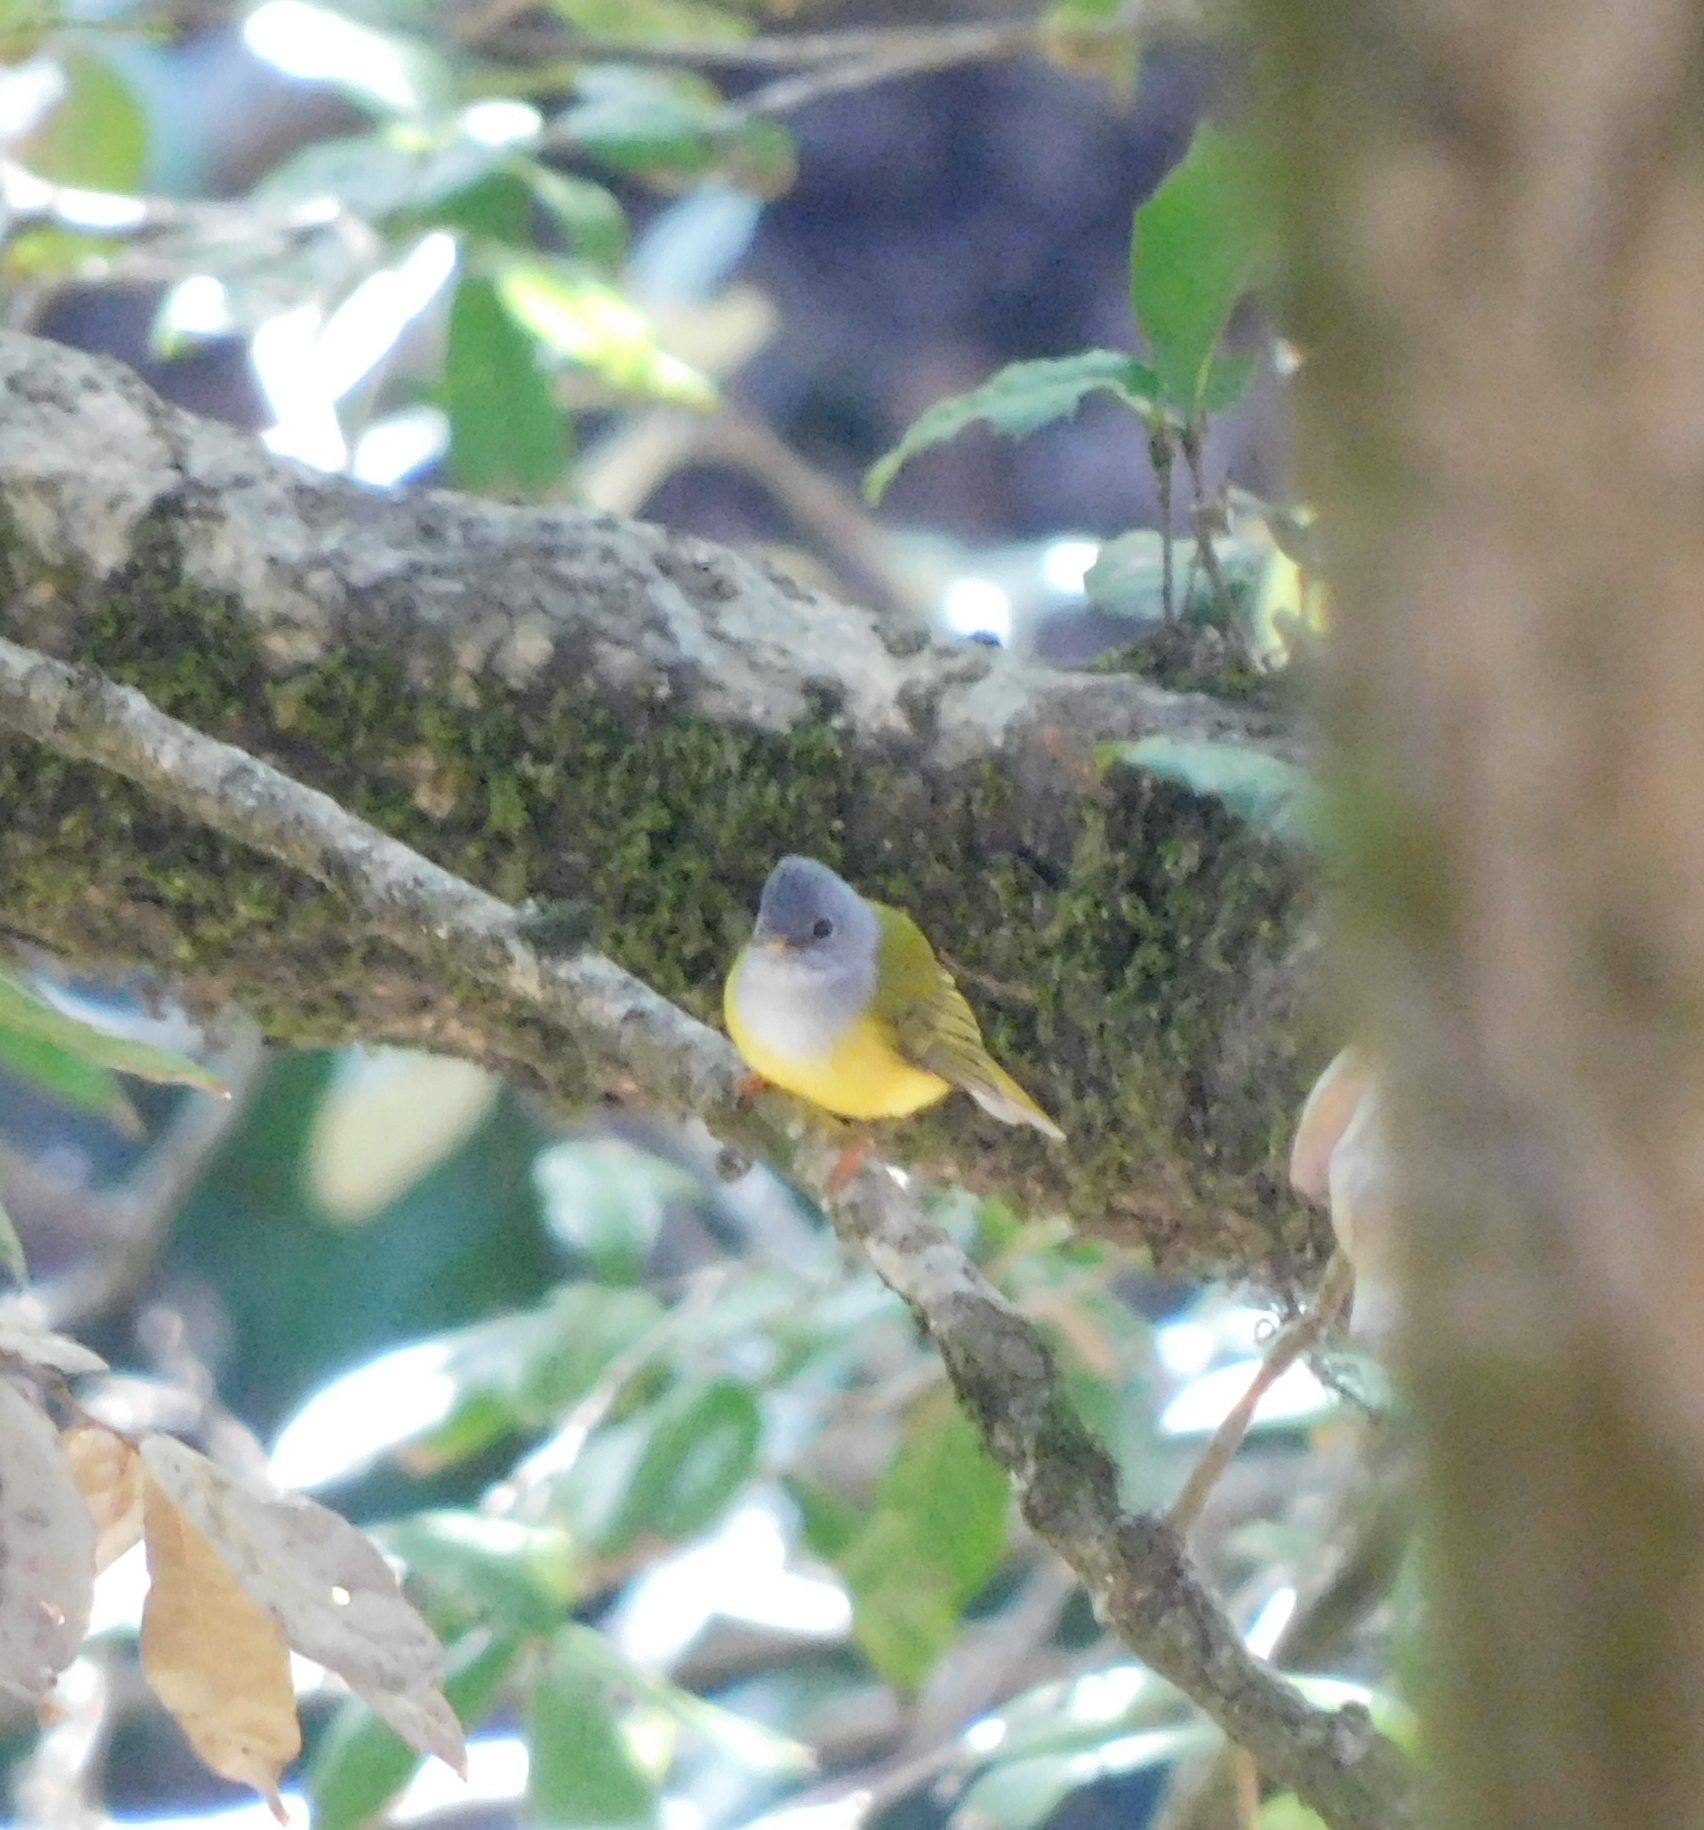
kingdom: Animalia
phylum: Chordata
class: Aves
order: Passeriformes
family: Stenostiridae
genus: Culicicapa
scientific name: Culicicapa ceylonensis
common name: Grey-headed canary-flycatcher
